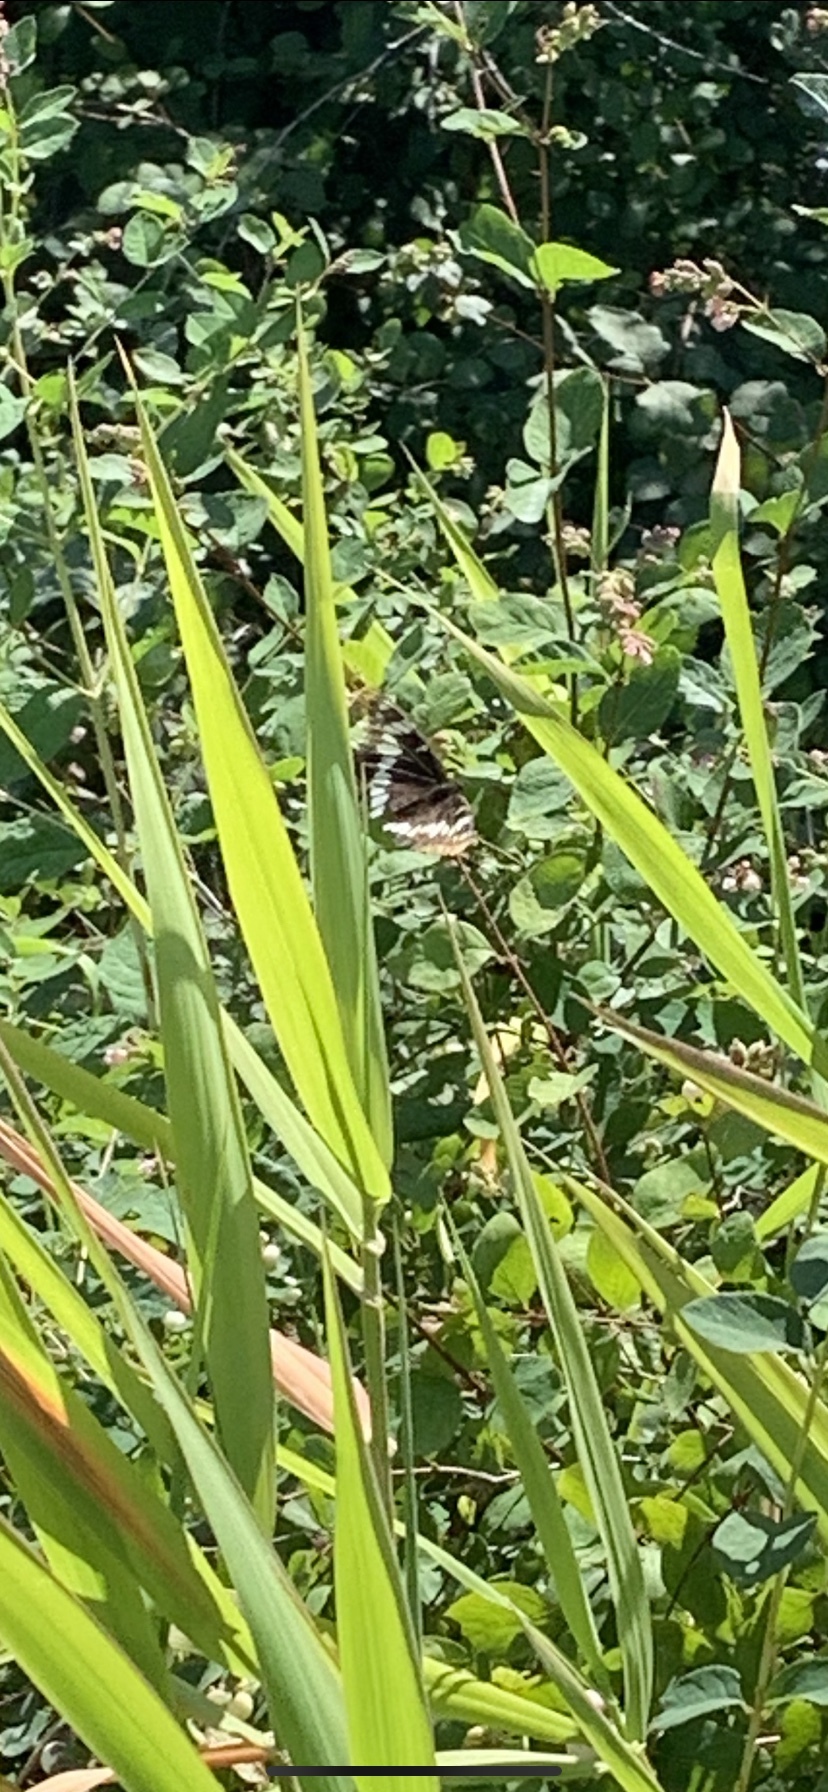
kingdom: Animalia
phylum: Arthropoda
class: Insecta
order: Lepidoptera
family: Nymphalidae
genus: Limenitis
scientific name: Limenitis lorquini
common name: Lorquin's admiral
